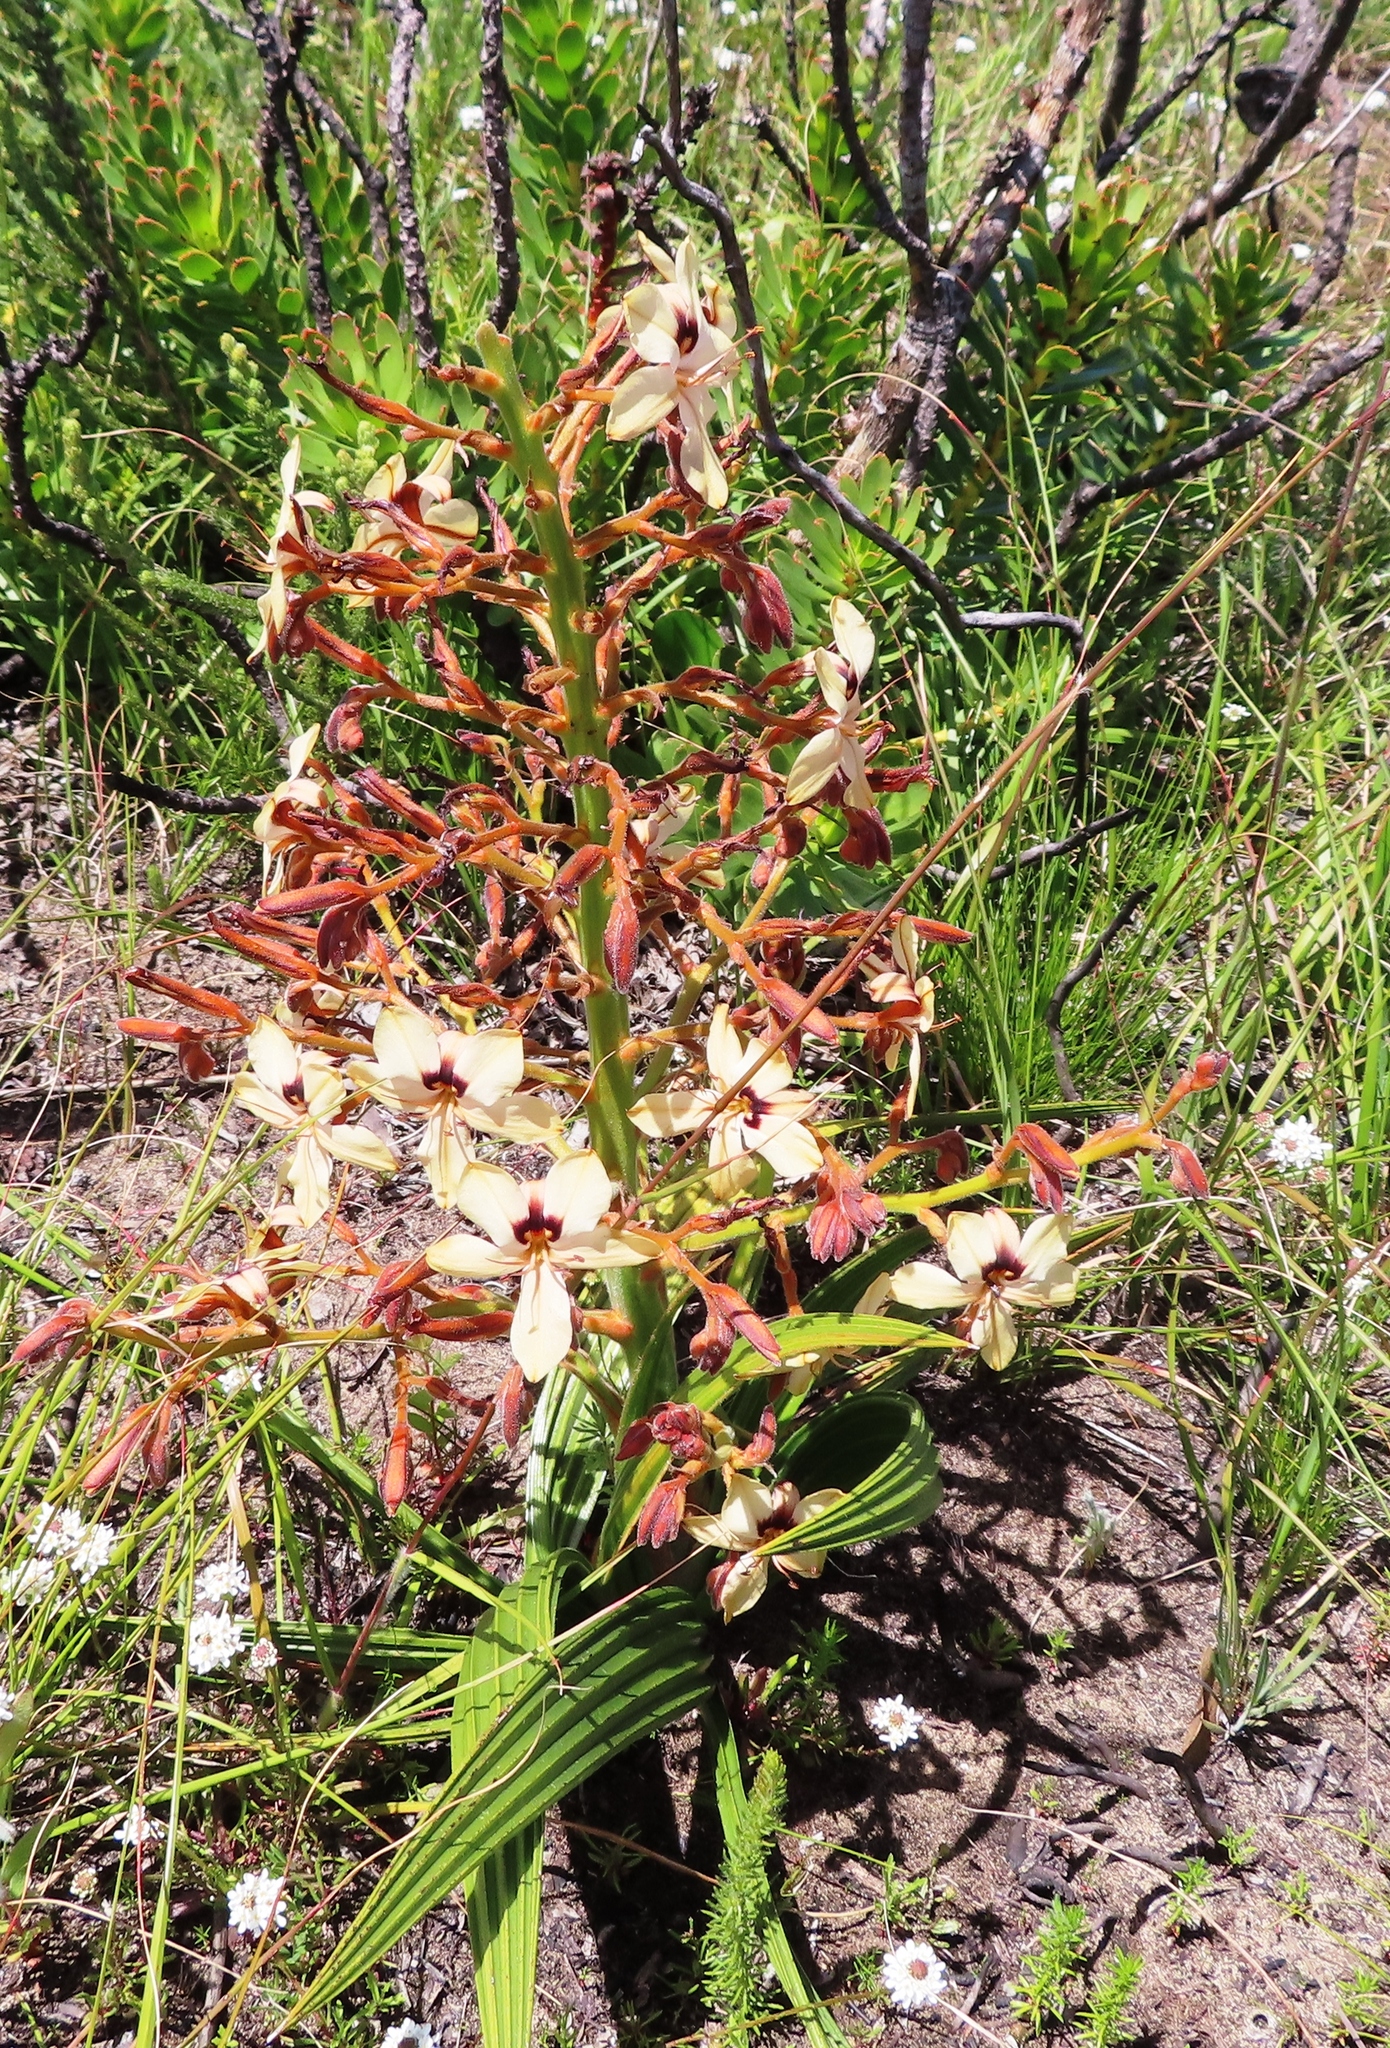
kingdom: Plantae
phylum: Tracheophyta
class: Liliopsida
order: Commelinales
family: Haemodoraceae
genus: Wachendorfia
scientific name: Wachendorfia paniculata
